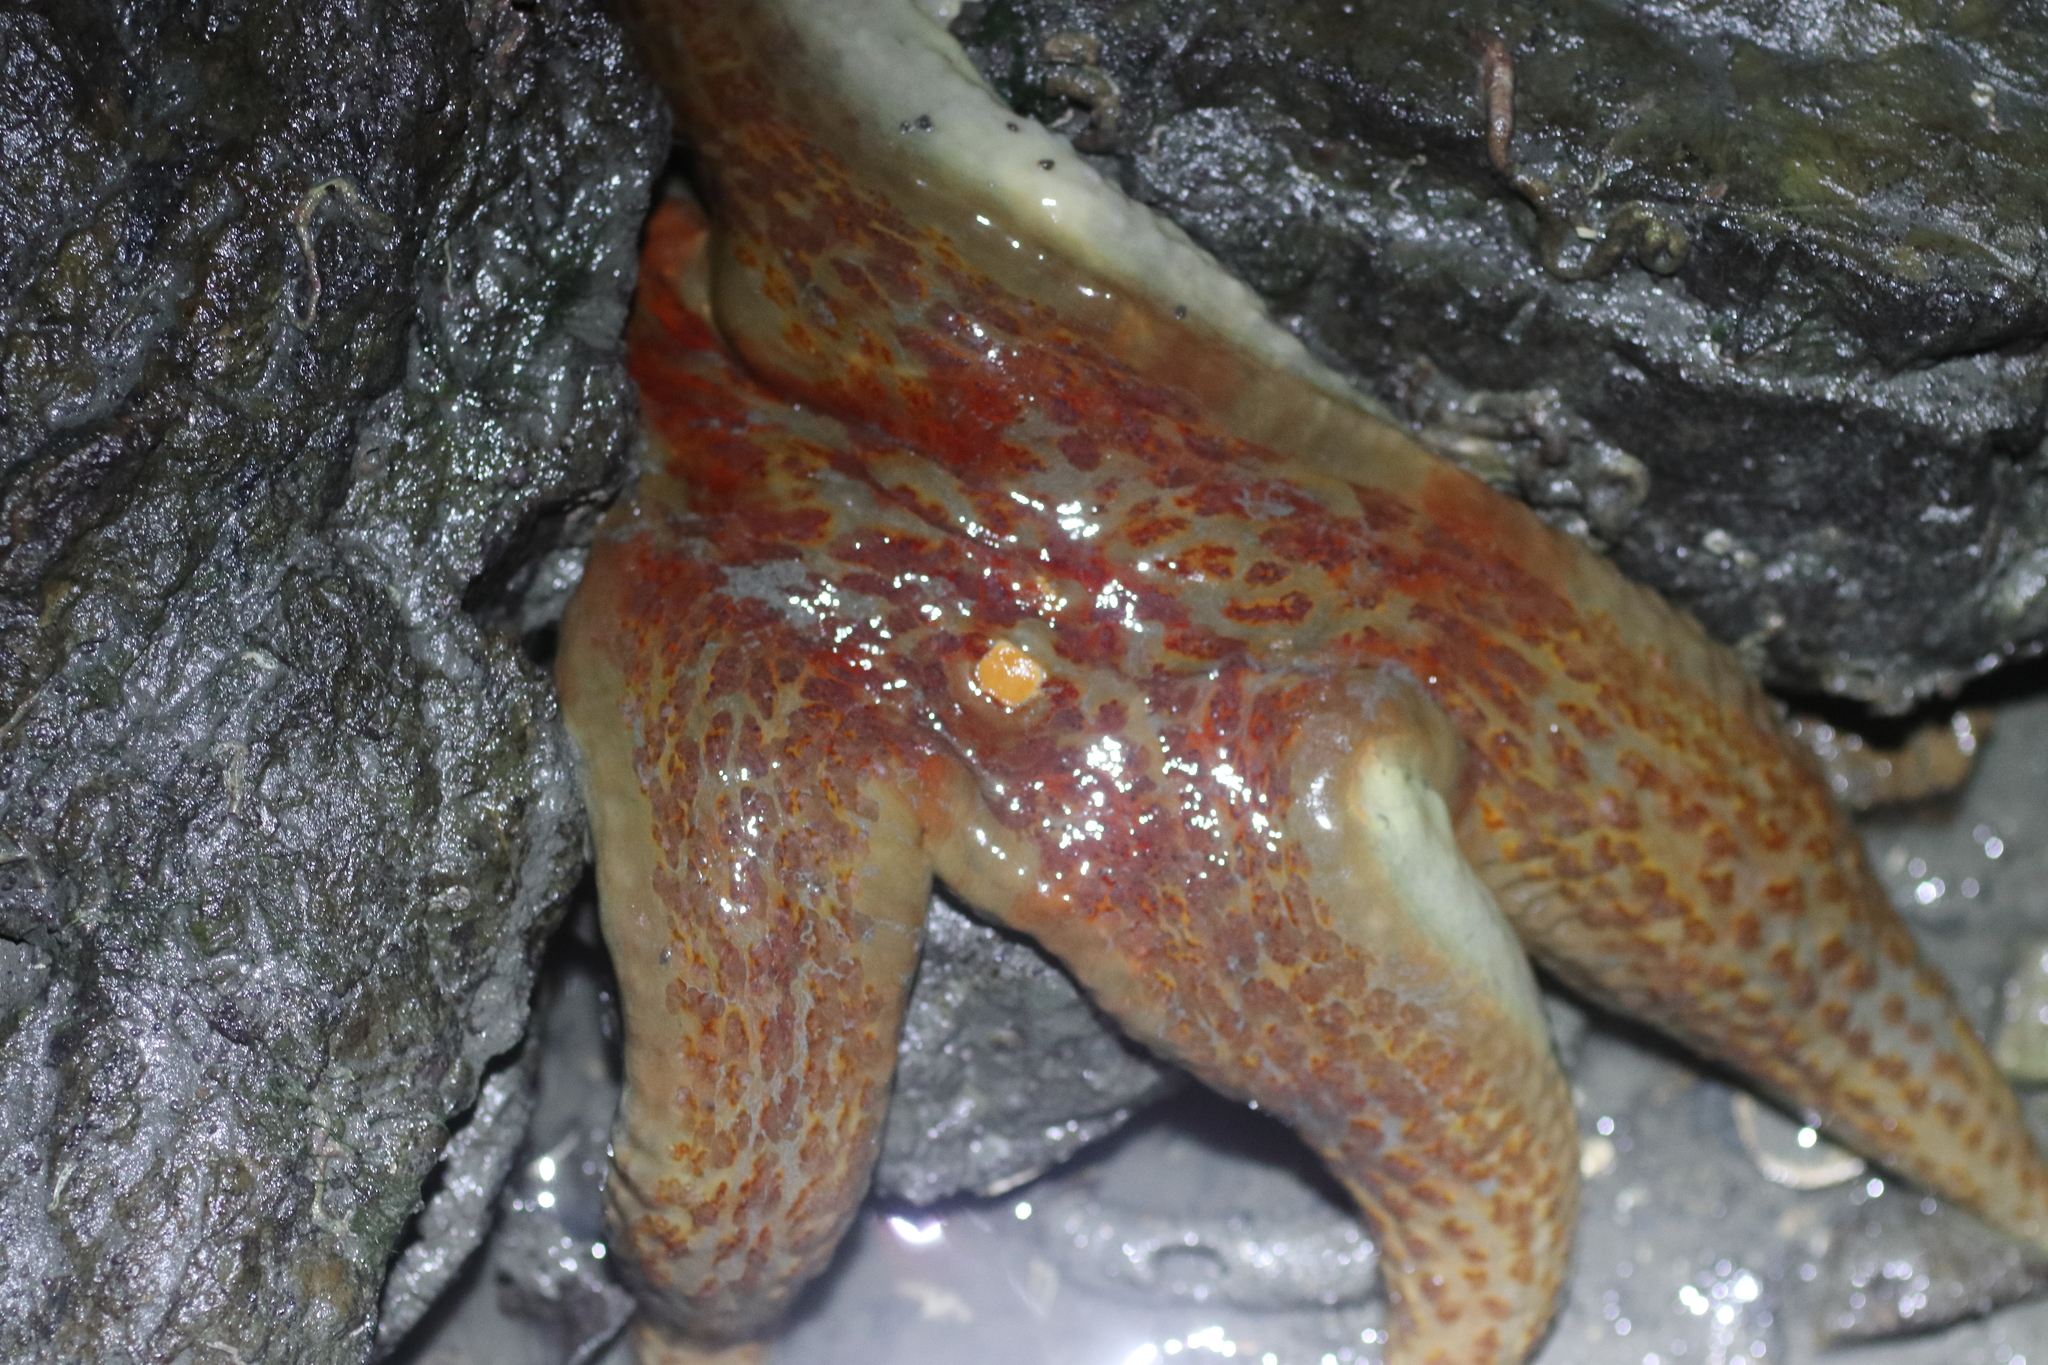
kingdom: Animalia
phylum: Echinodermata
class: Asteroidea
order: Valvatida
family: Asteropseidae
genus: Dermasterias
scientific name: Dermasterias imbricata
